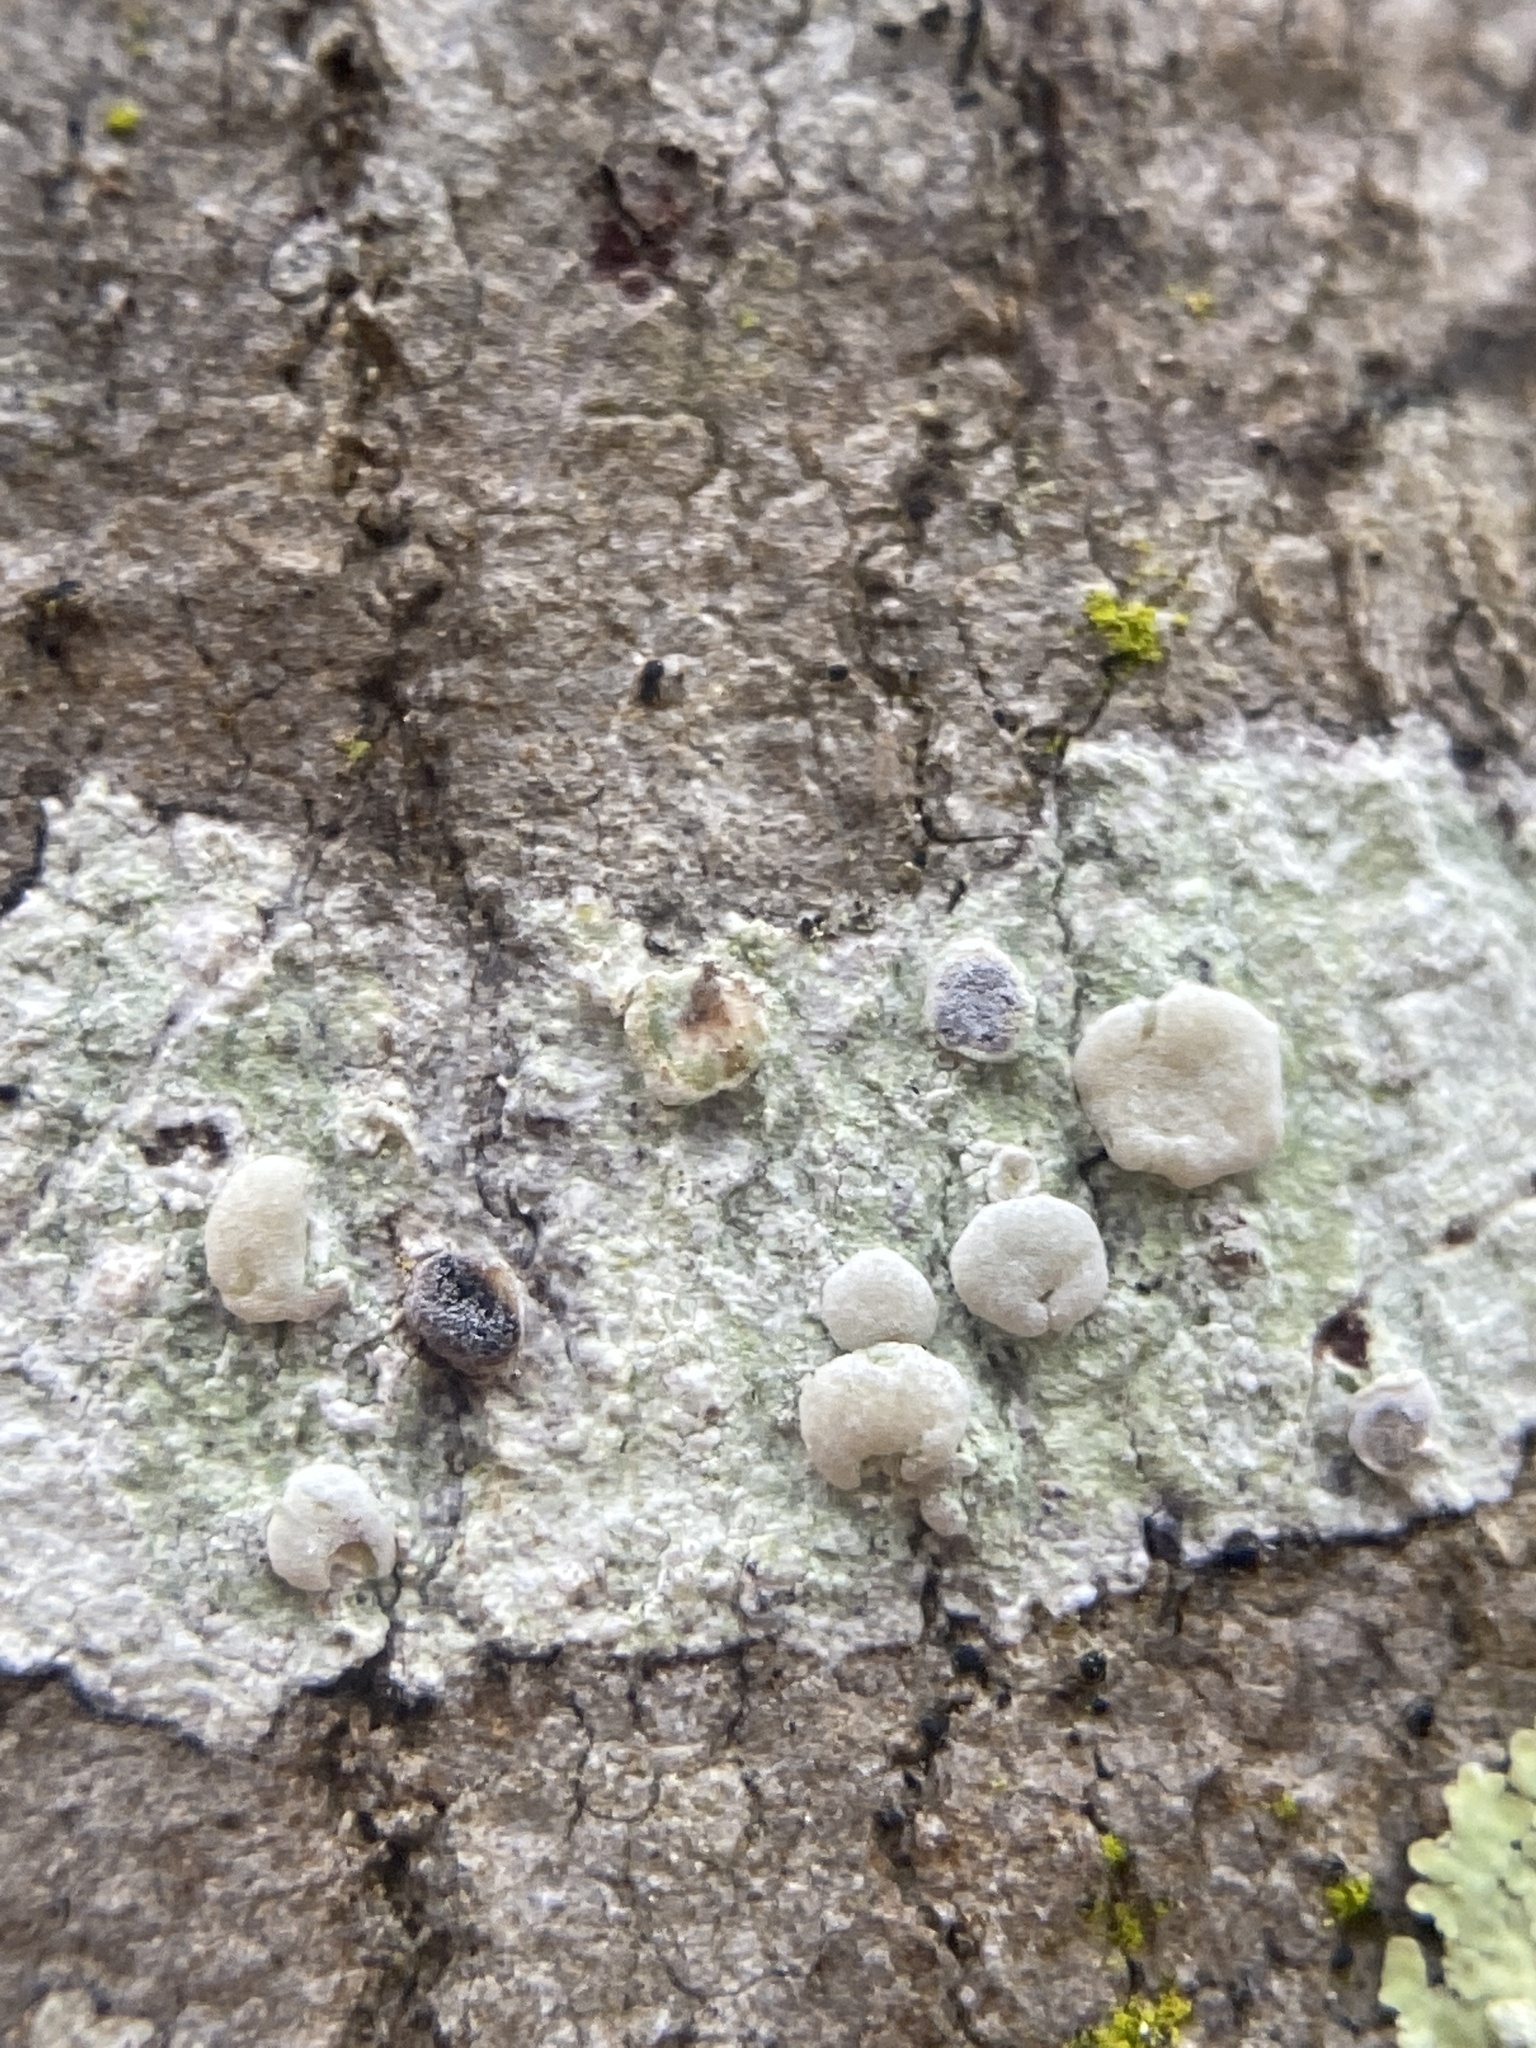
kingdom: Fungi
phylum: Ascomycota
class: Lecanoromycetes
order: Lecanorales
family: Lecanoraceae
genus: Lecanora
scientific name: Lecanora caesiorubella
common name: Frosted rim-lichen
